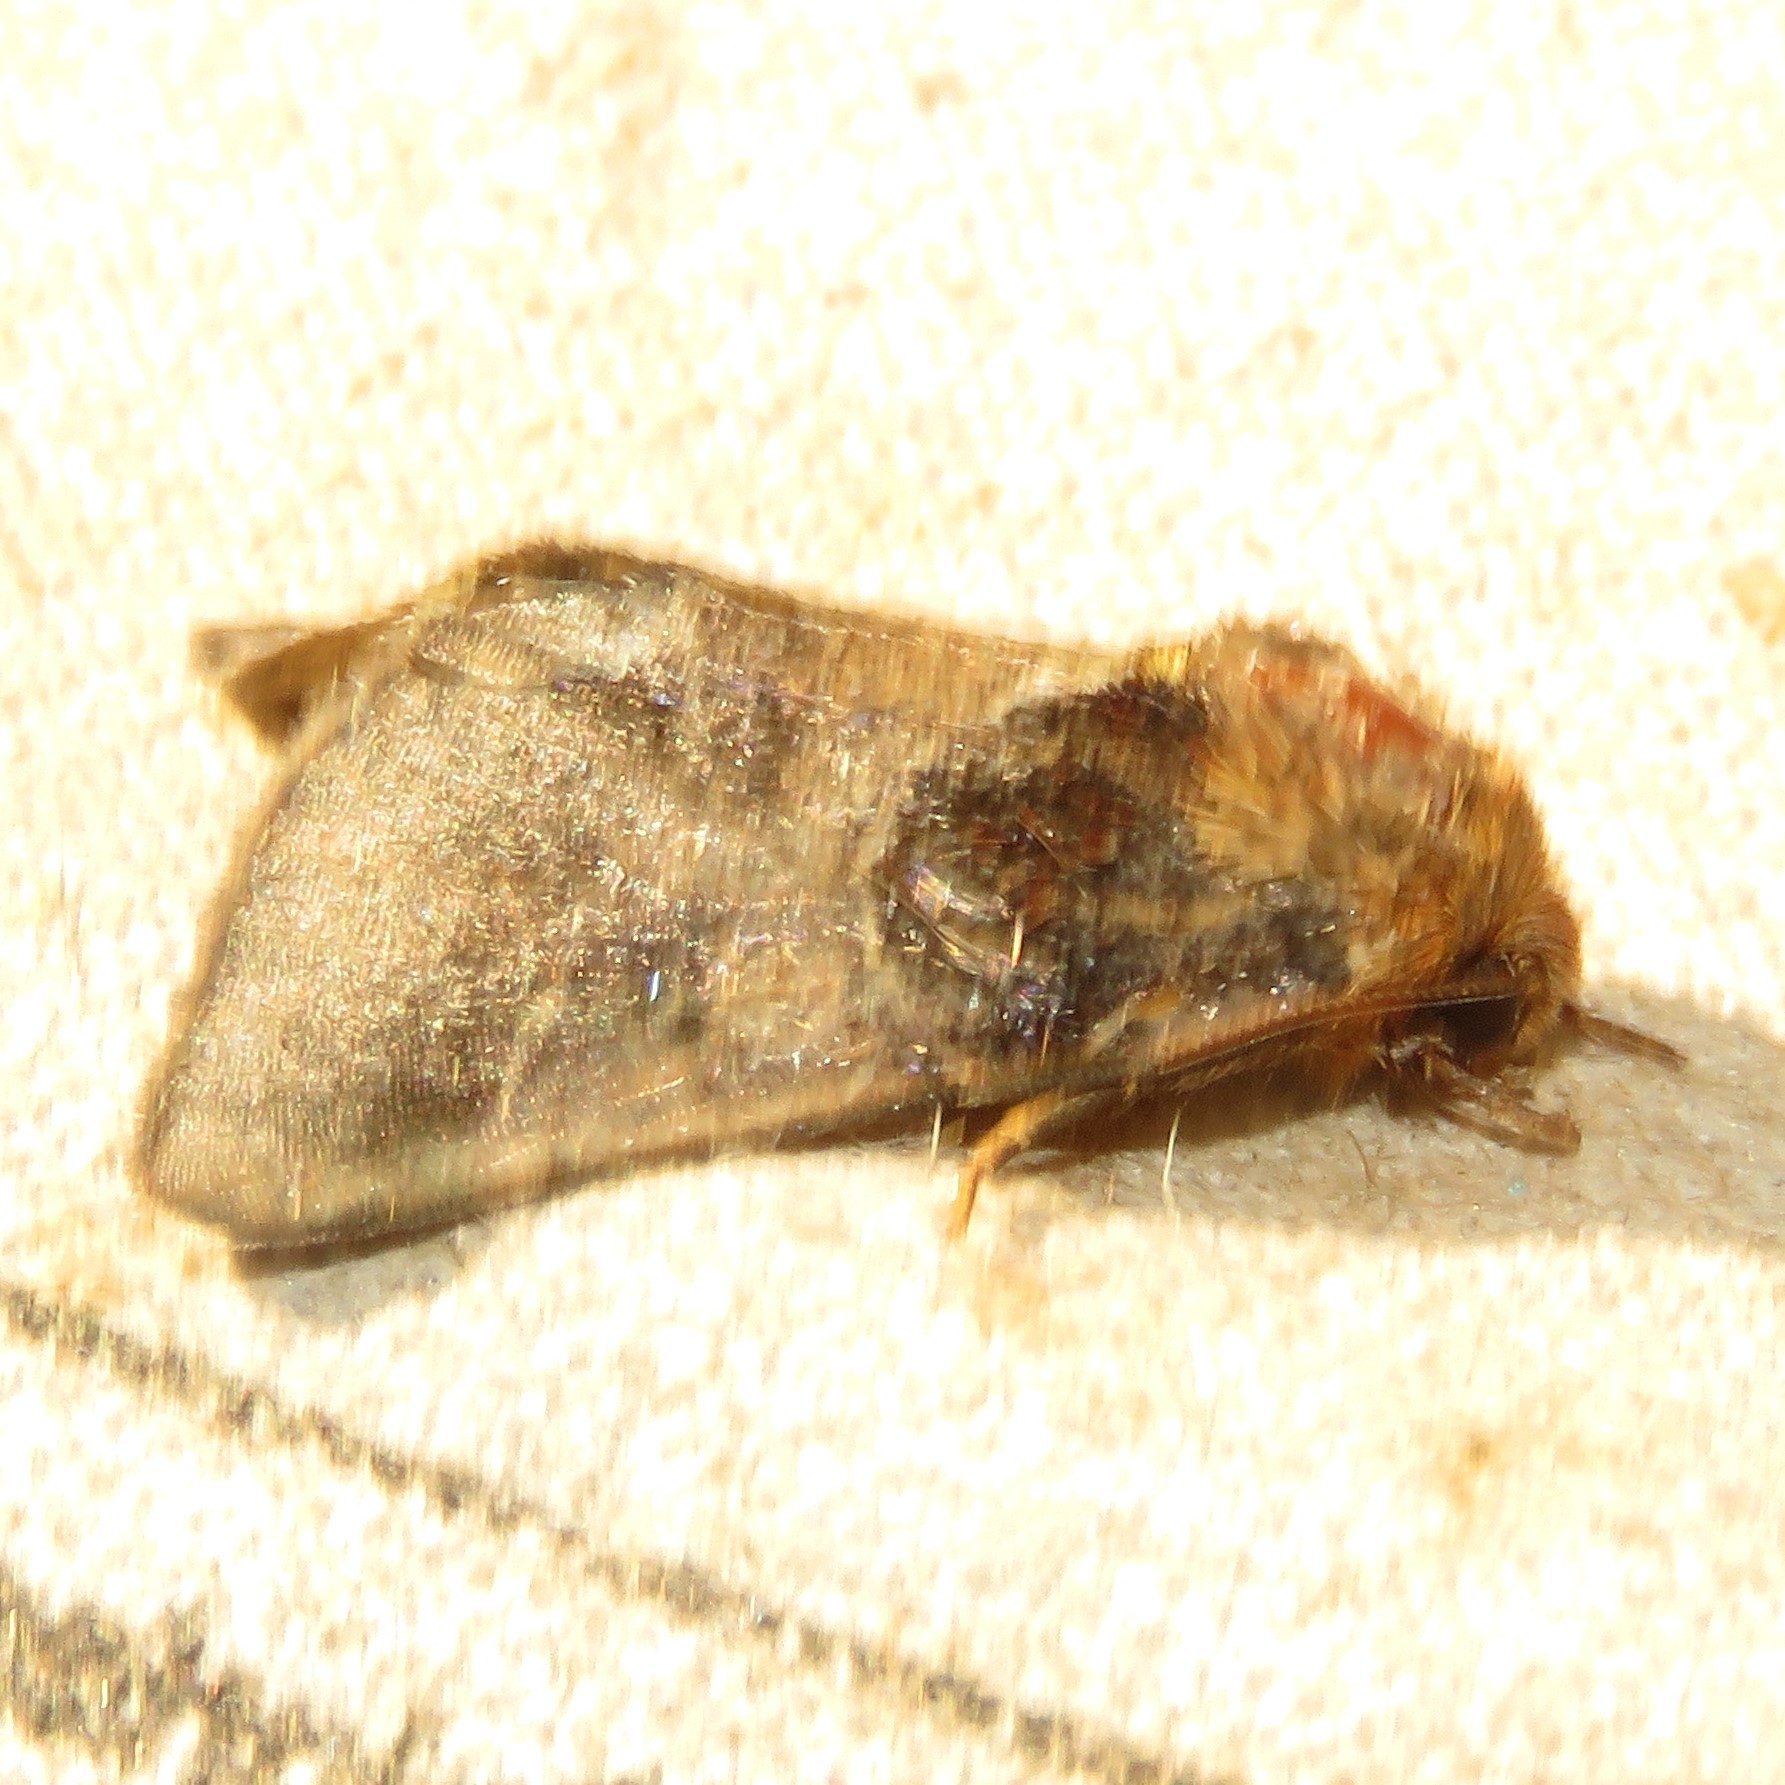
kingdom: Animalia
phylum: Arthropoda
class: Insecta
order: Lepidoptera
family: Noctuidae
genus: Schinia
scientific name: Schinia arcigera
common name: Arcigera flower moth
